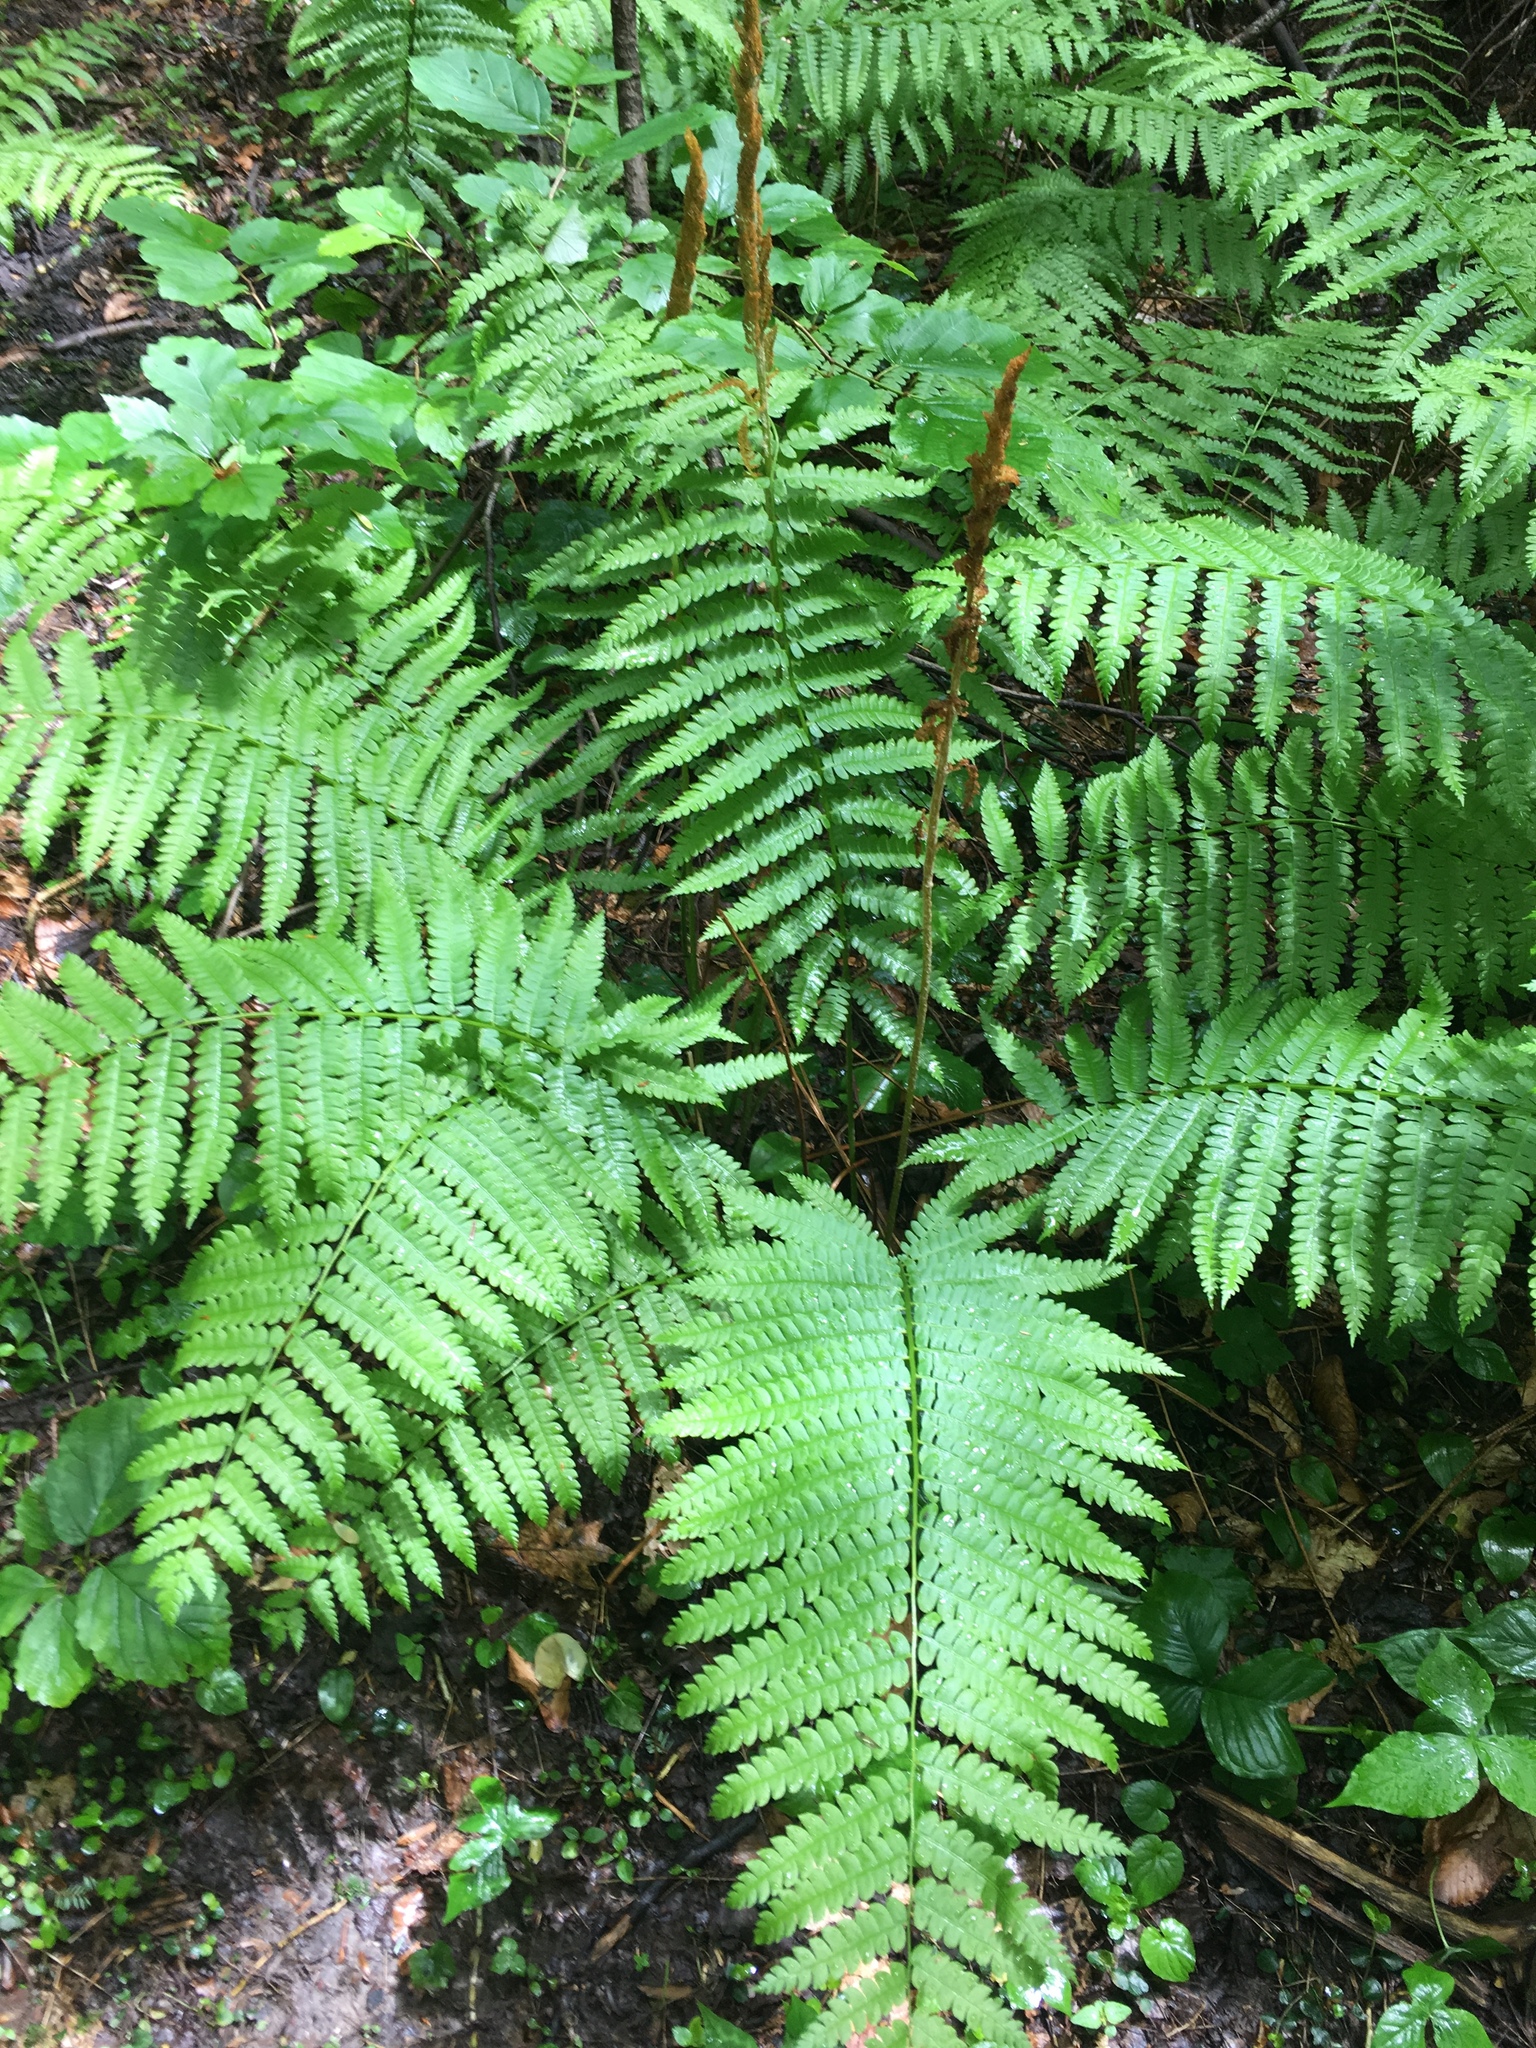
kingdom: Plantae
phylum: Tracheophyta
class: Polypodiopsida
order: Osmundales
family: Osmundaceae
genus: Osmundastrum
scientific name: Osmundastrum cinnamomeum
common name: Cinnamon fern
